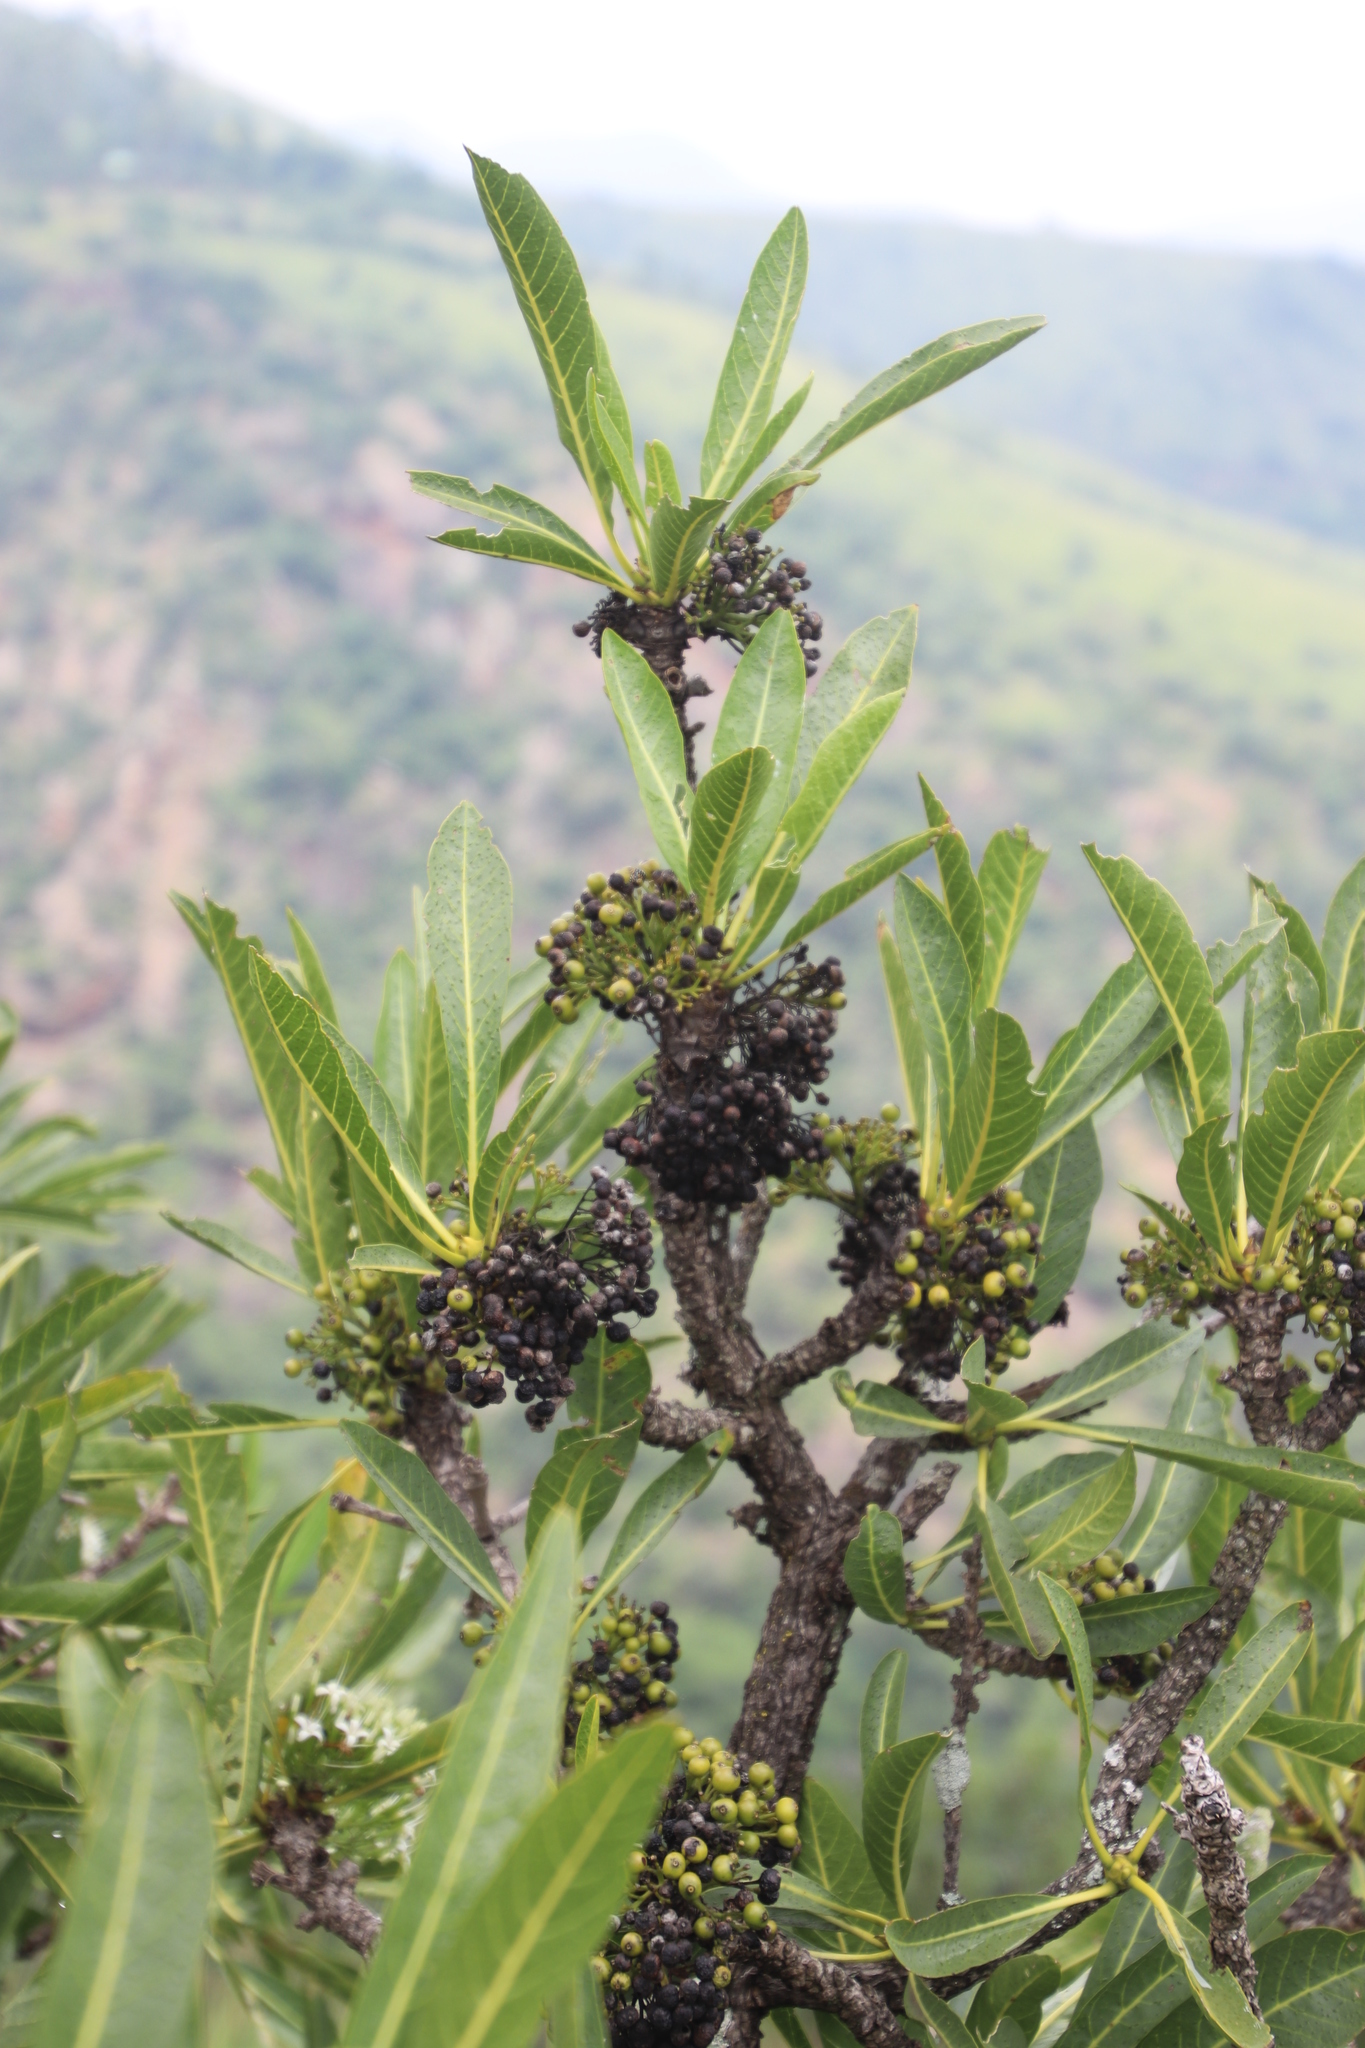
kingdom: Plantae
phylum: Tracheophyta
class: Magnoliopsida
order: Gentianales
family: Rubiaceae
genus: Pavetta
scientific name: Pavetta edentula
